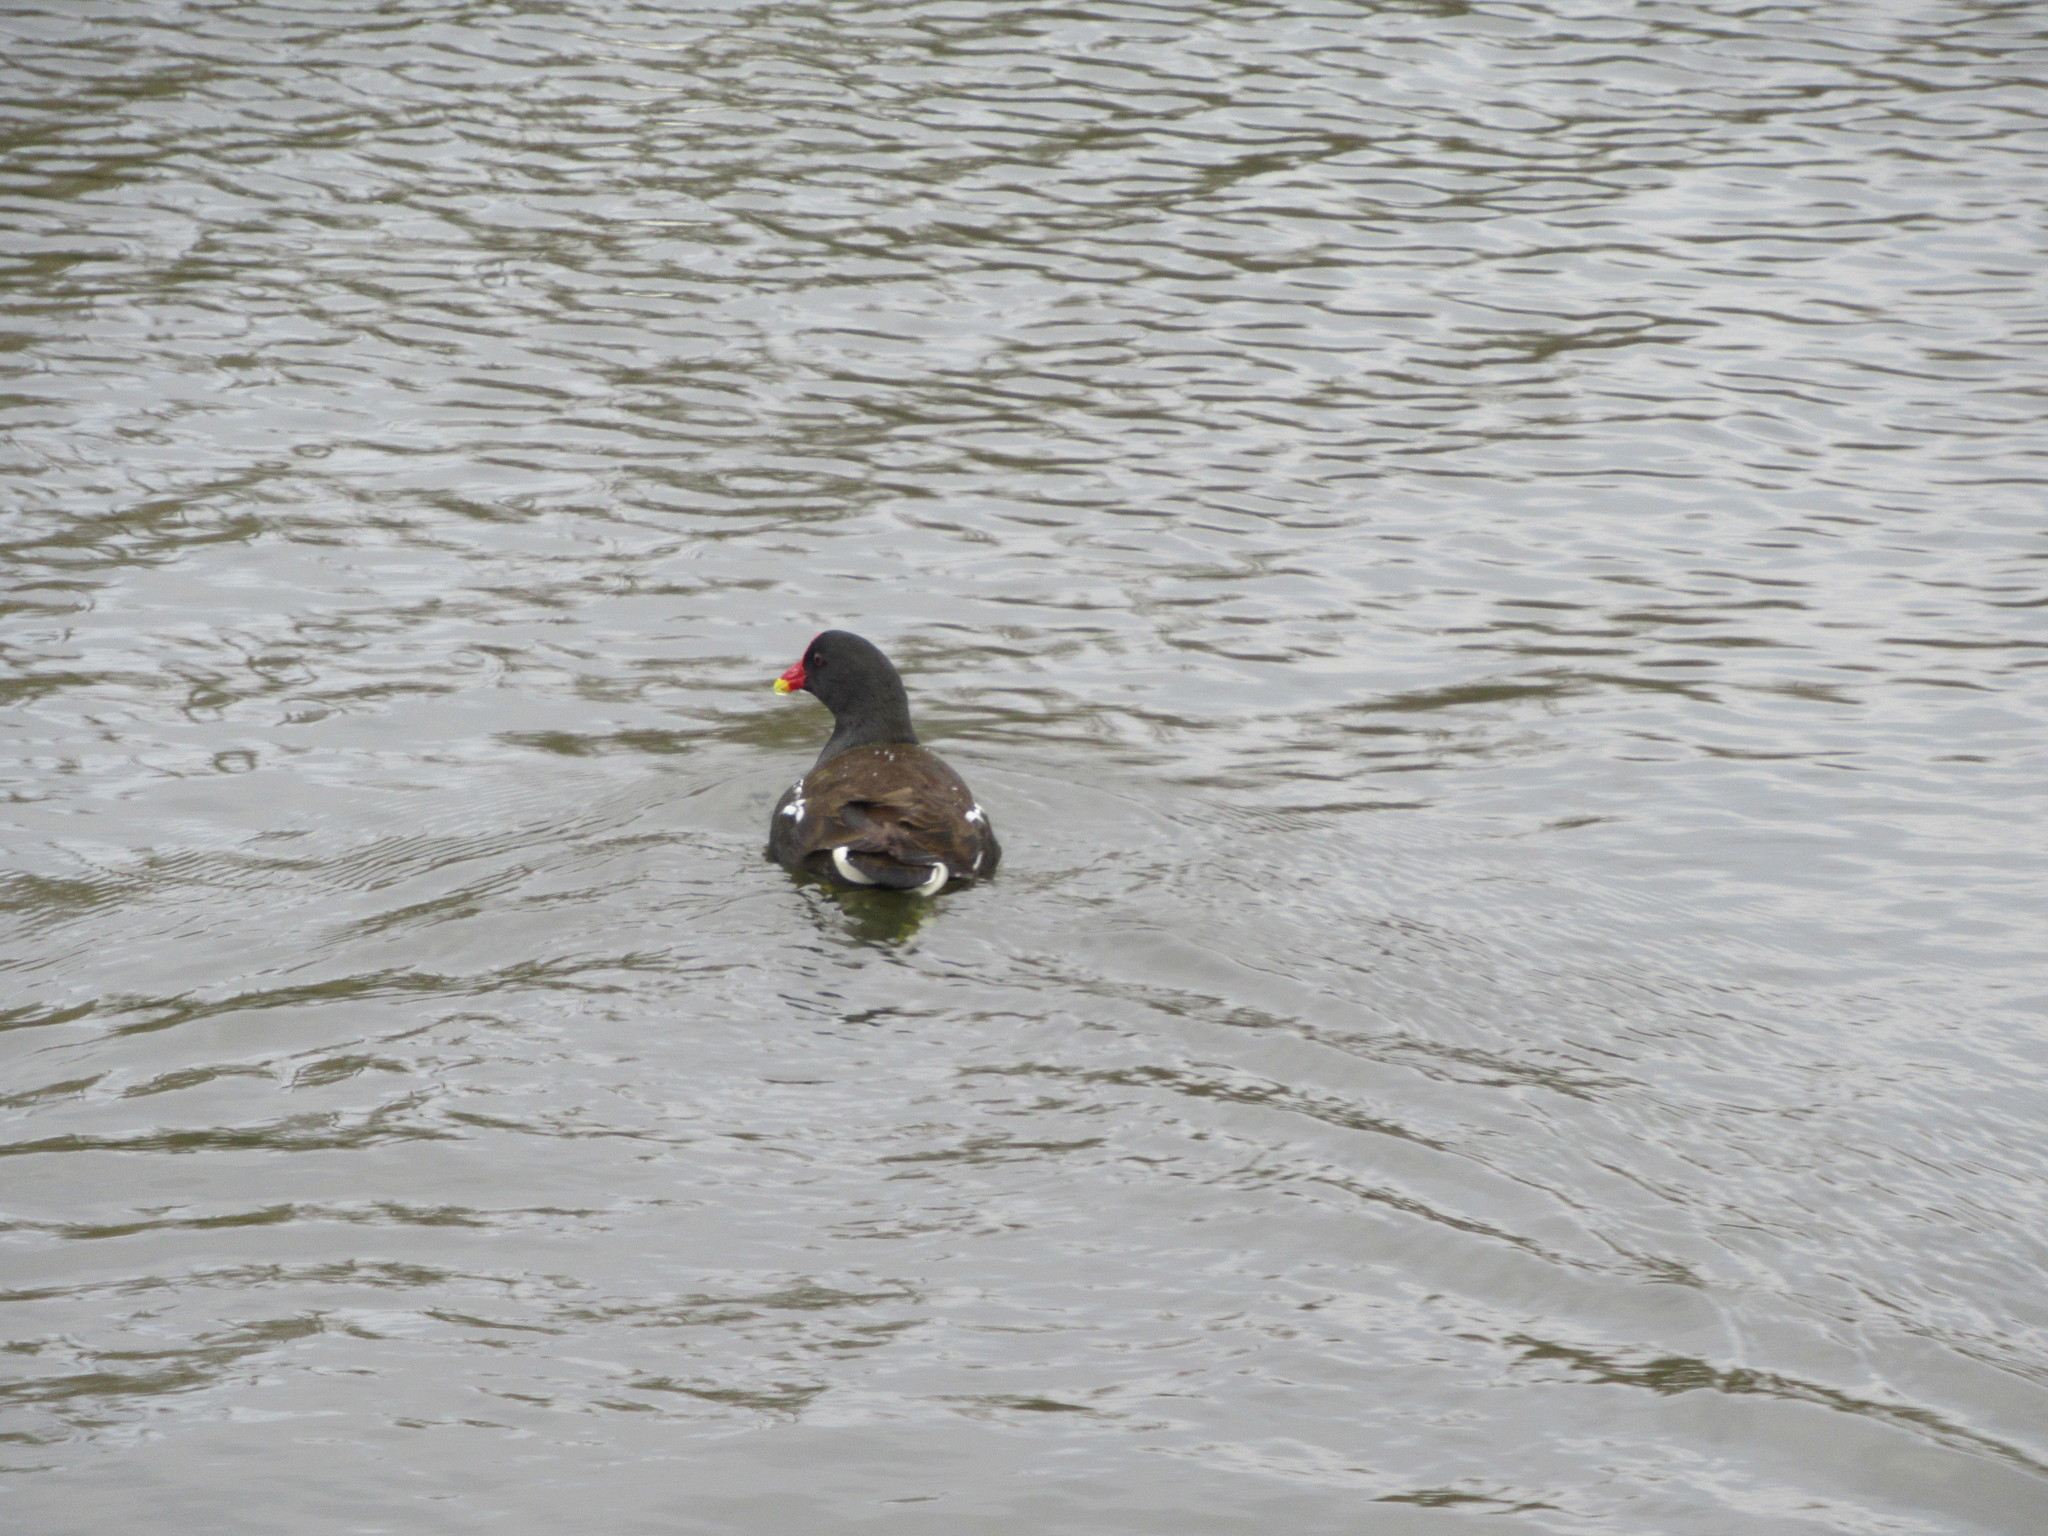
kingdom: Animalia
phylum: Chordata
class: Aves
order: Gruiformes
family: Rallidae
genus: Gallinula
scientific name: Gallinula chloropus
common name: Common moorhen
